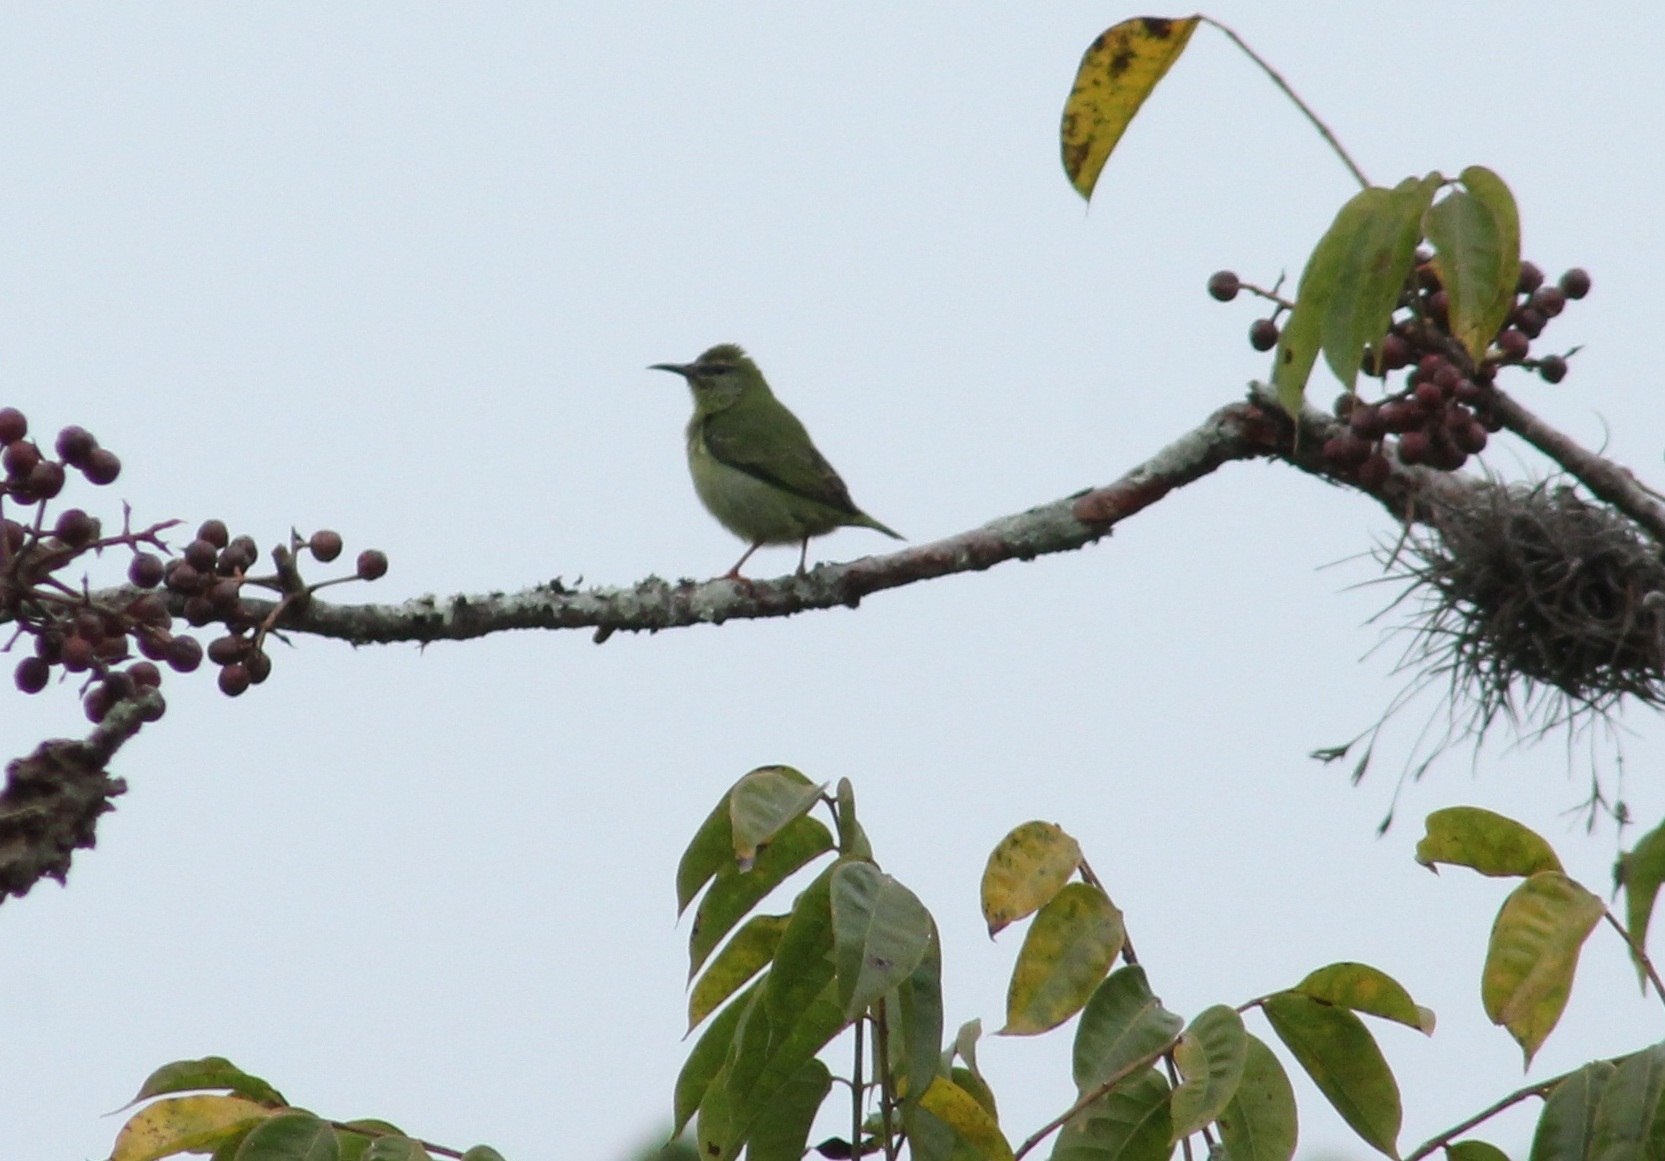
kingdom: Animalia
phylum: Chordata
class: Aves
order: Passeriformes
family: Thraupidae
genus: Cyanerpes
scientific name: Cyanerpes cyaneus
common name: Red-legged honeycreeper
